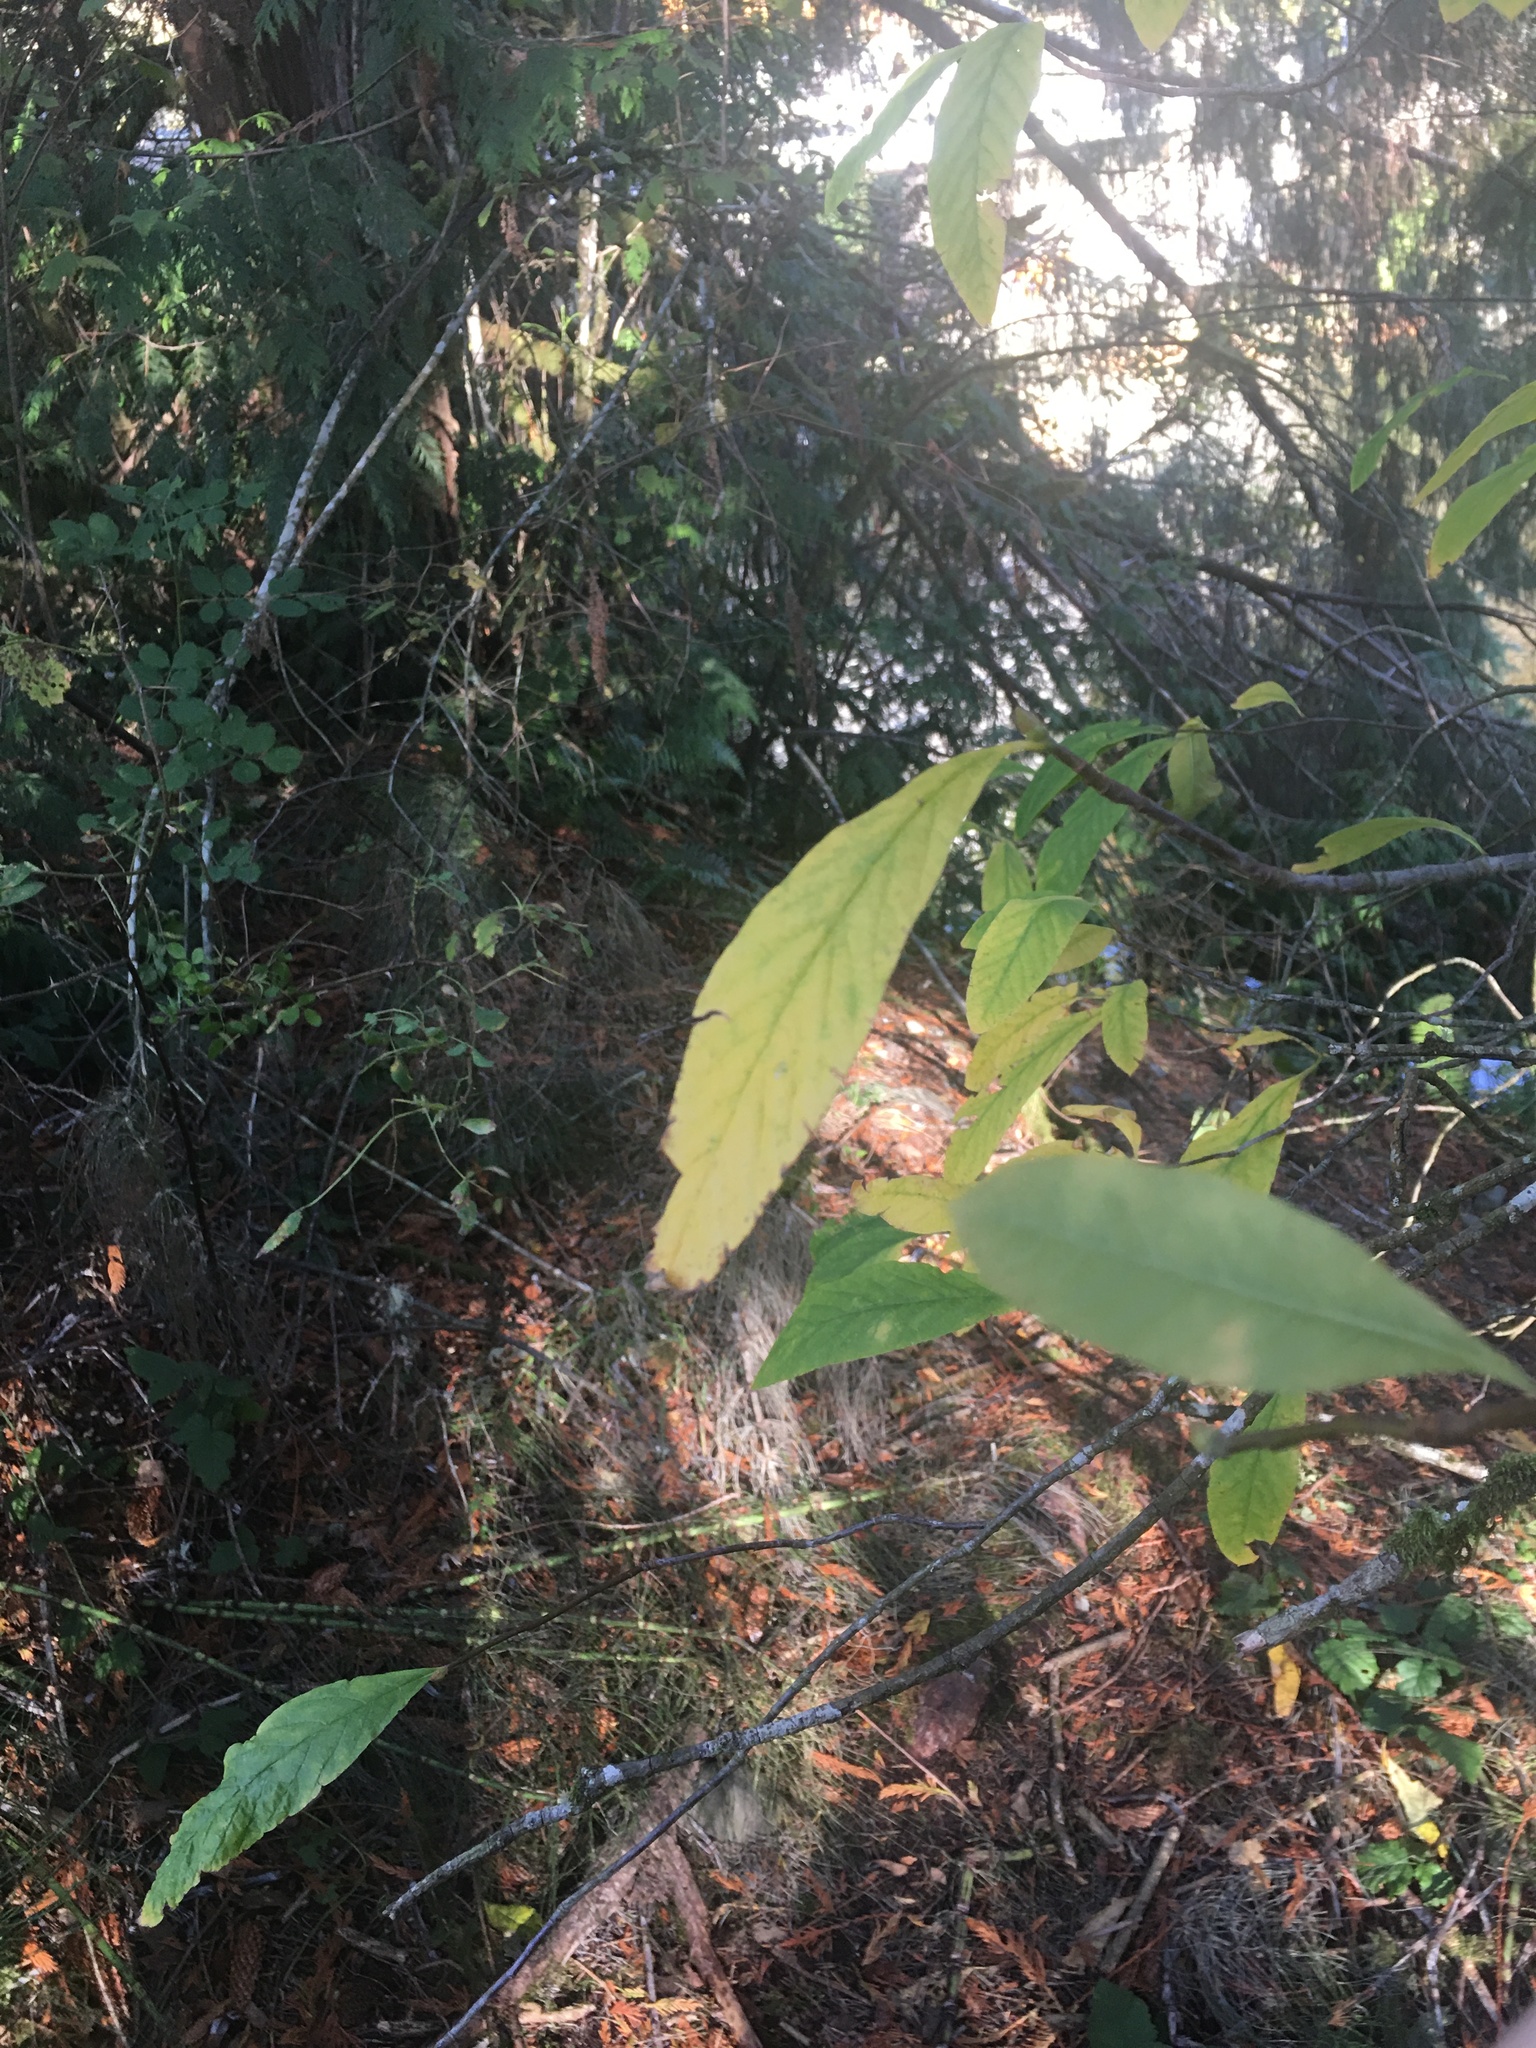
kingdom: Plantae
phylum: Tracheophyta
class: Magnoliopsida
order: Rosales
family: Rosaceae
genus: Oemleria
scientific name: Oemleria cerasiformis
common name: Osoberry
